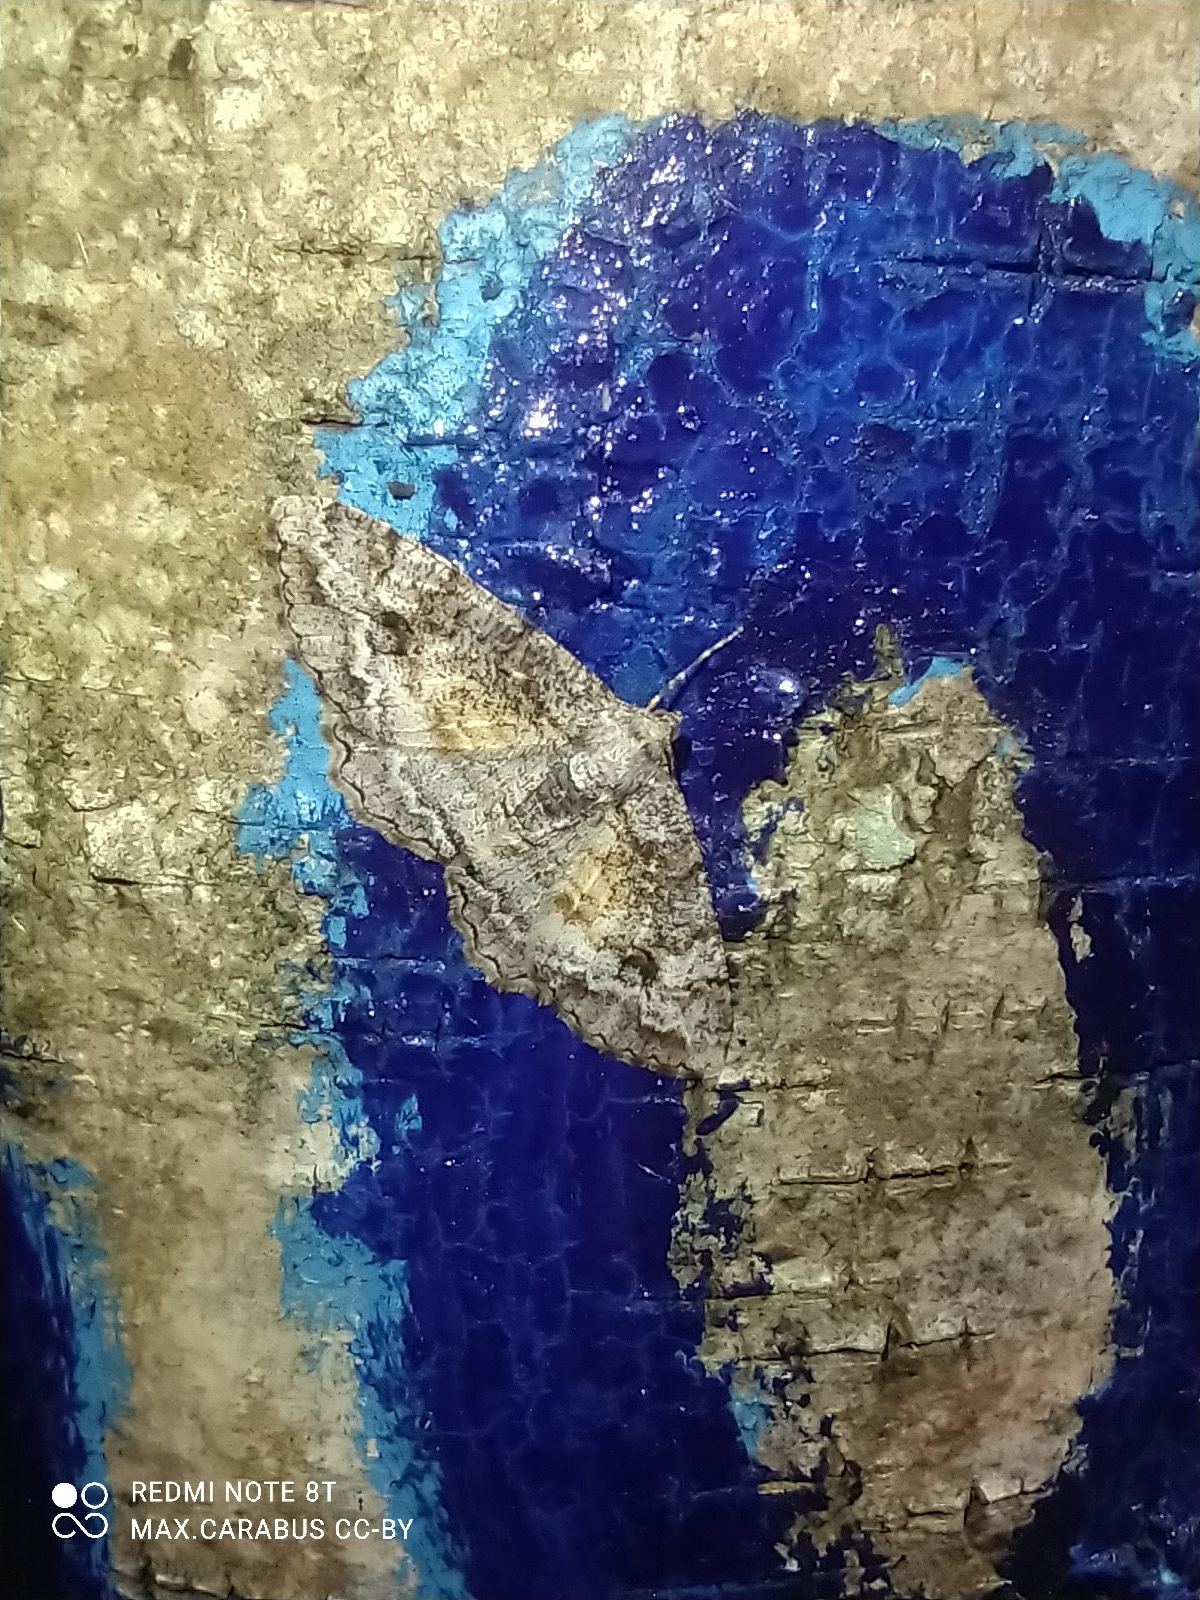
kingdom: Animalia
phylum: Arthropoda
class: Insecta
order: Lepidoptera
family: Geometridae
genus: Alcis
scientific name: Alcis repandata
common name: Mottled beauty
